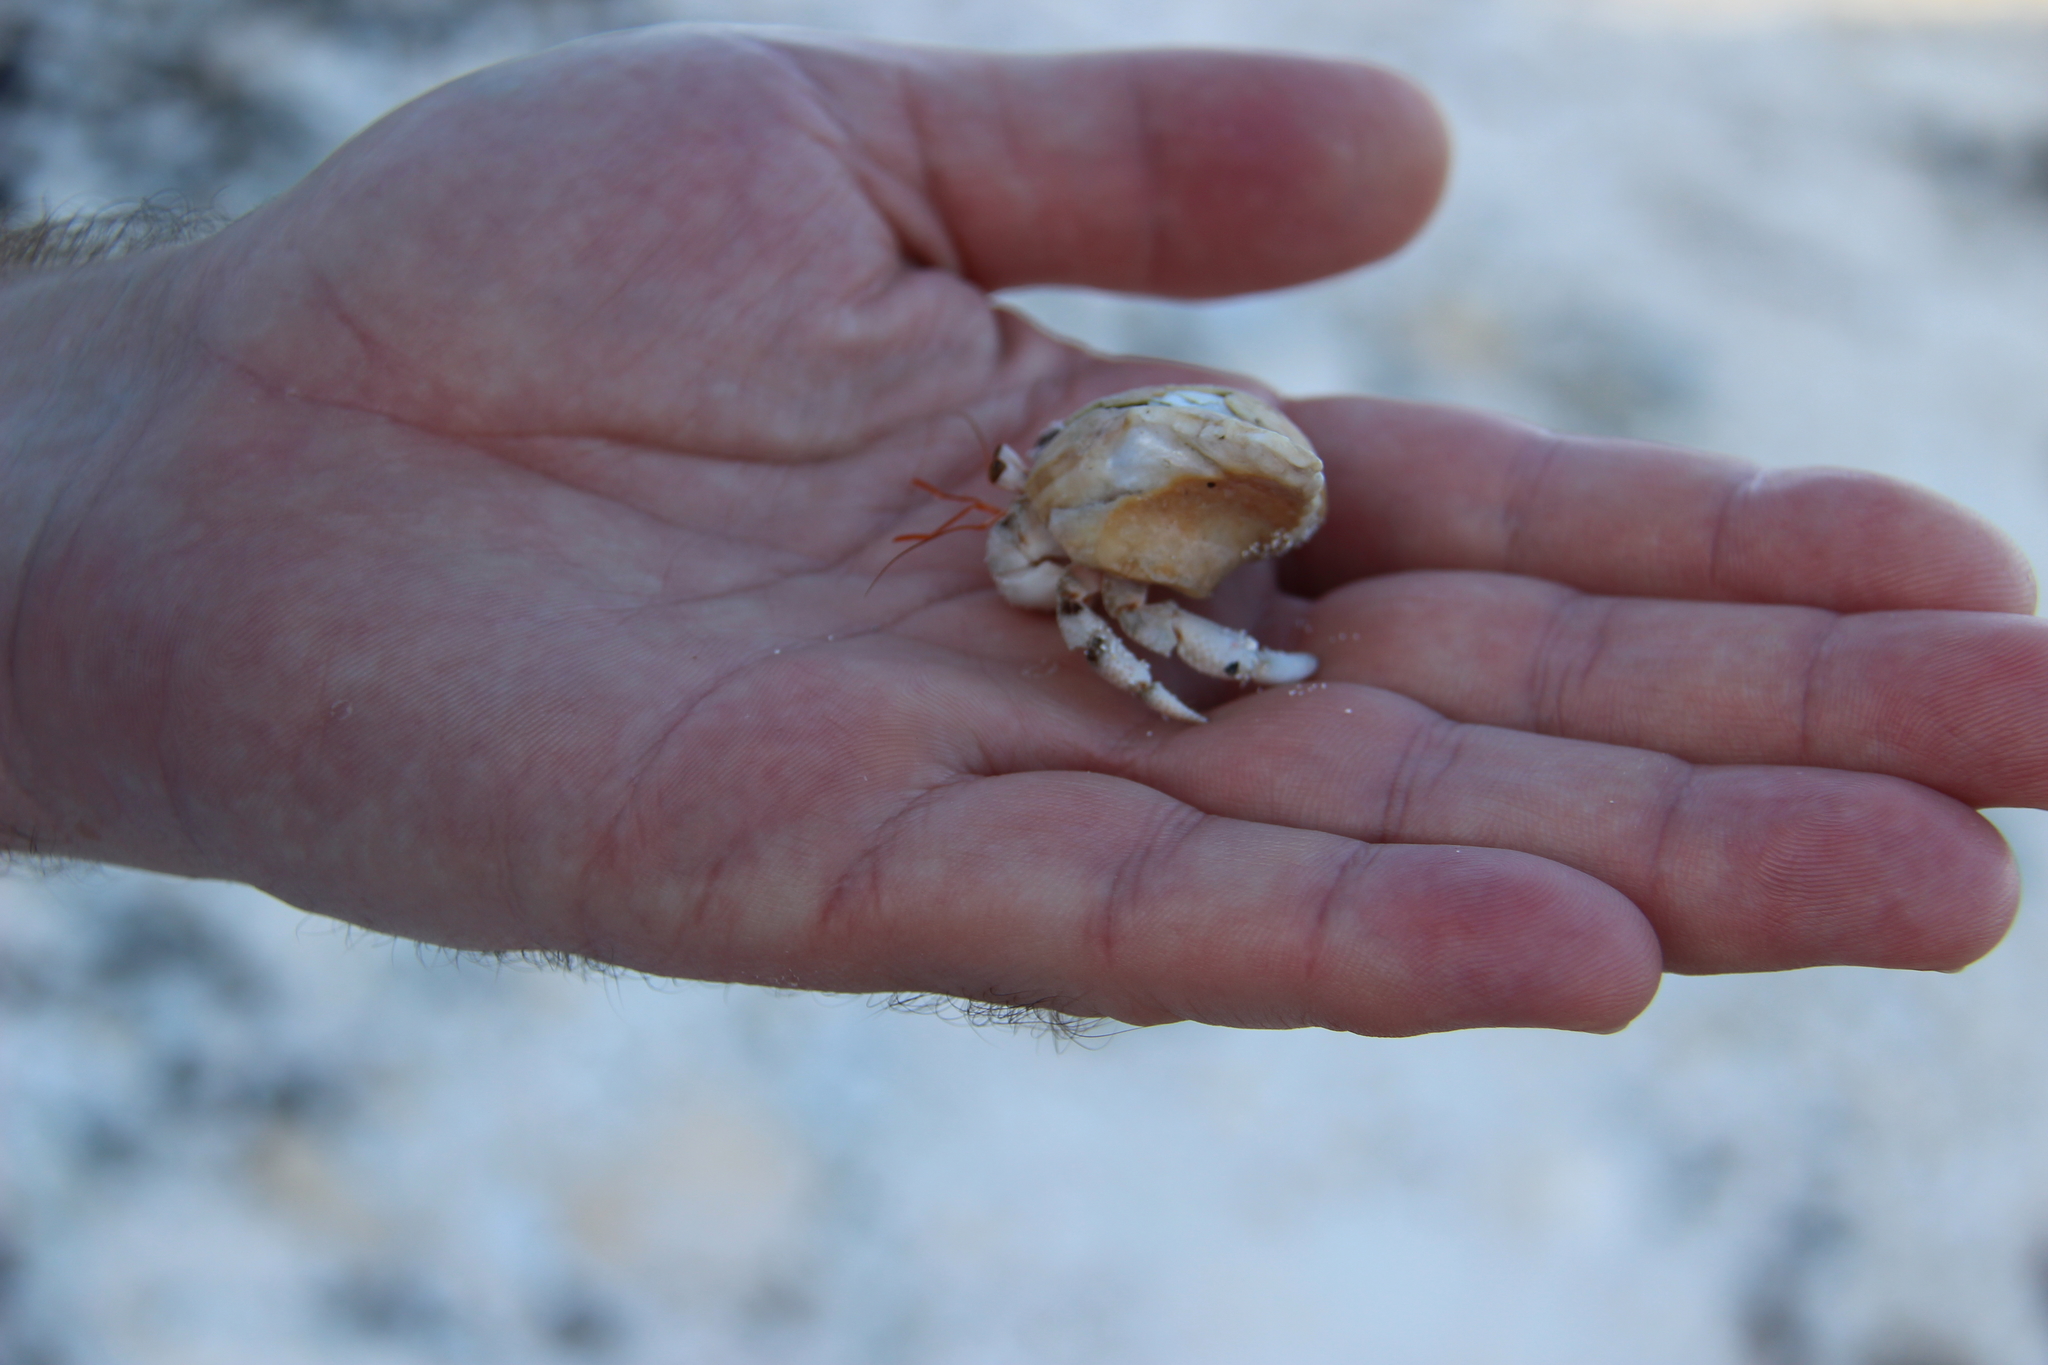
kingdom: Animalia
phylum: Arthropoda
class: Malacostraca
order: Decapoda
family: Coenobitidae
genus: Coenobita
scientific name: Coenobita carnescens
